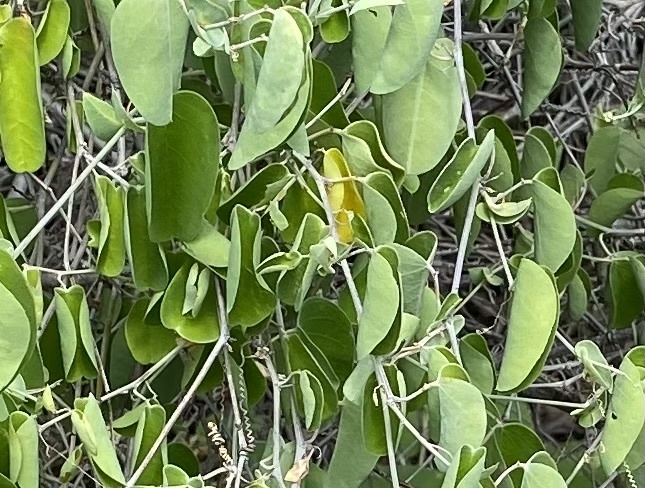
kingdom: Plantae
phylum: Tracheophyta
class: Magnoliopsida
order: Malpighiales
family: Passifloraceae
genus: Passiflora
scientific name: Passiflora subrotunda
